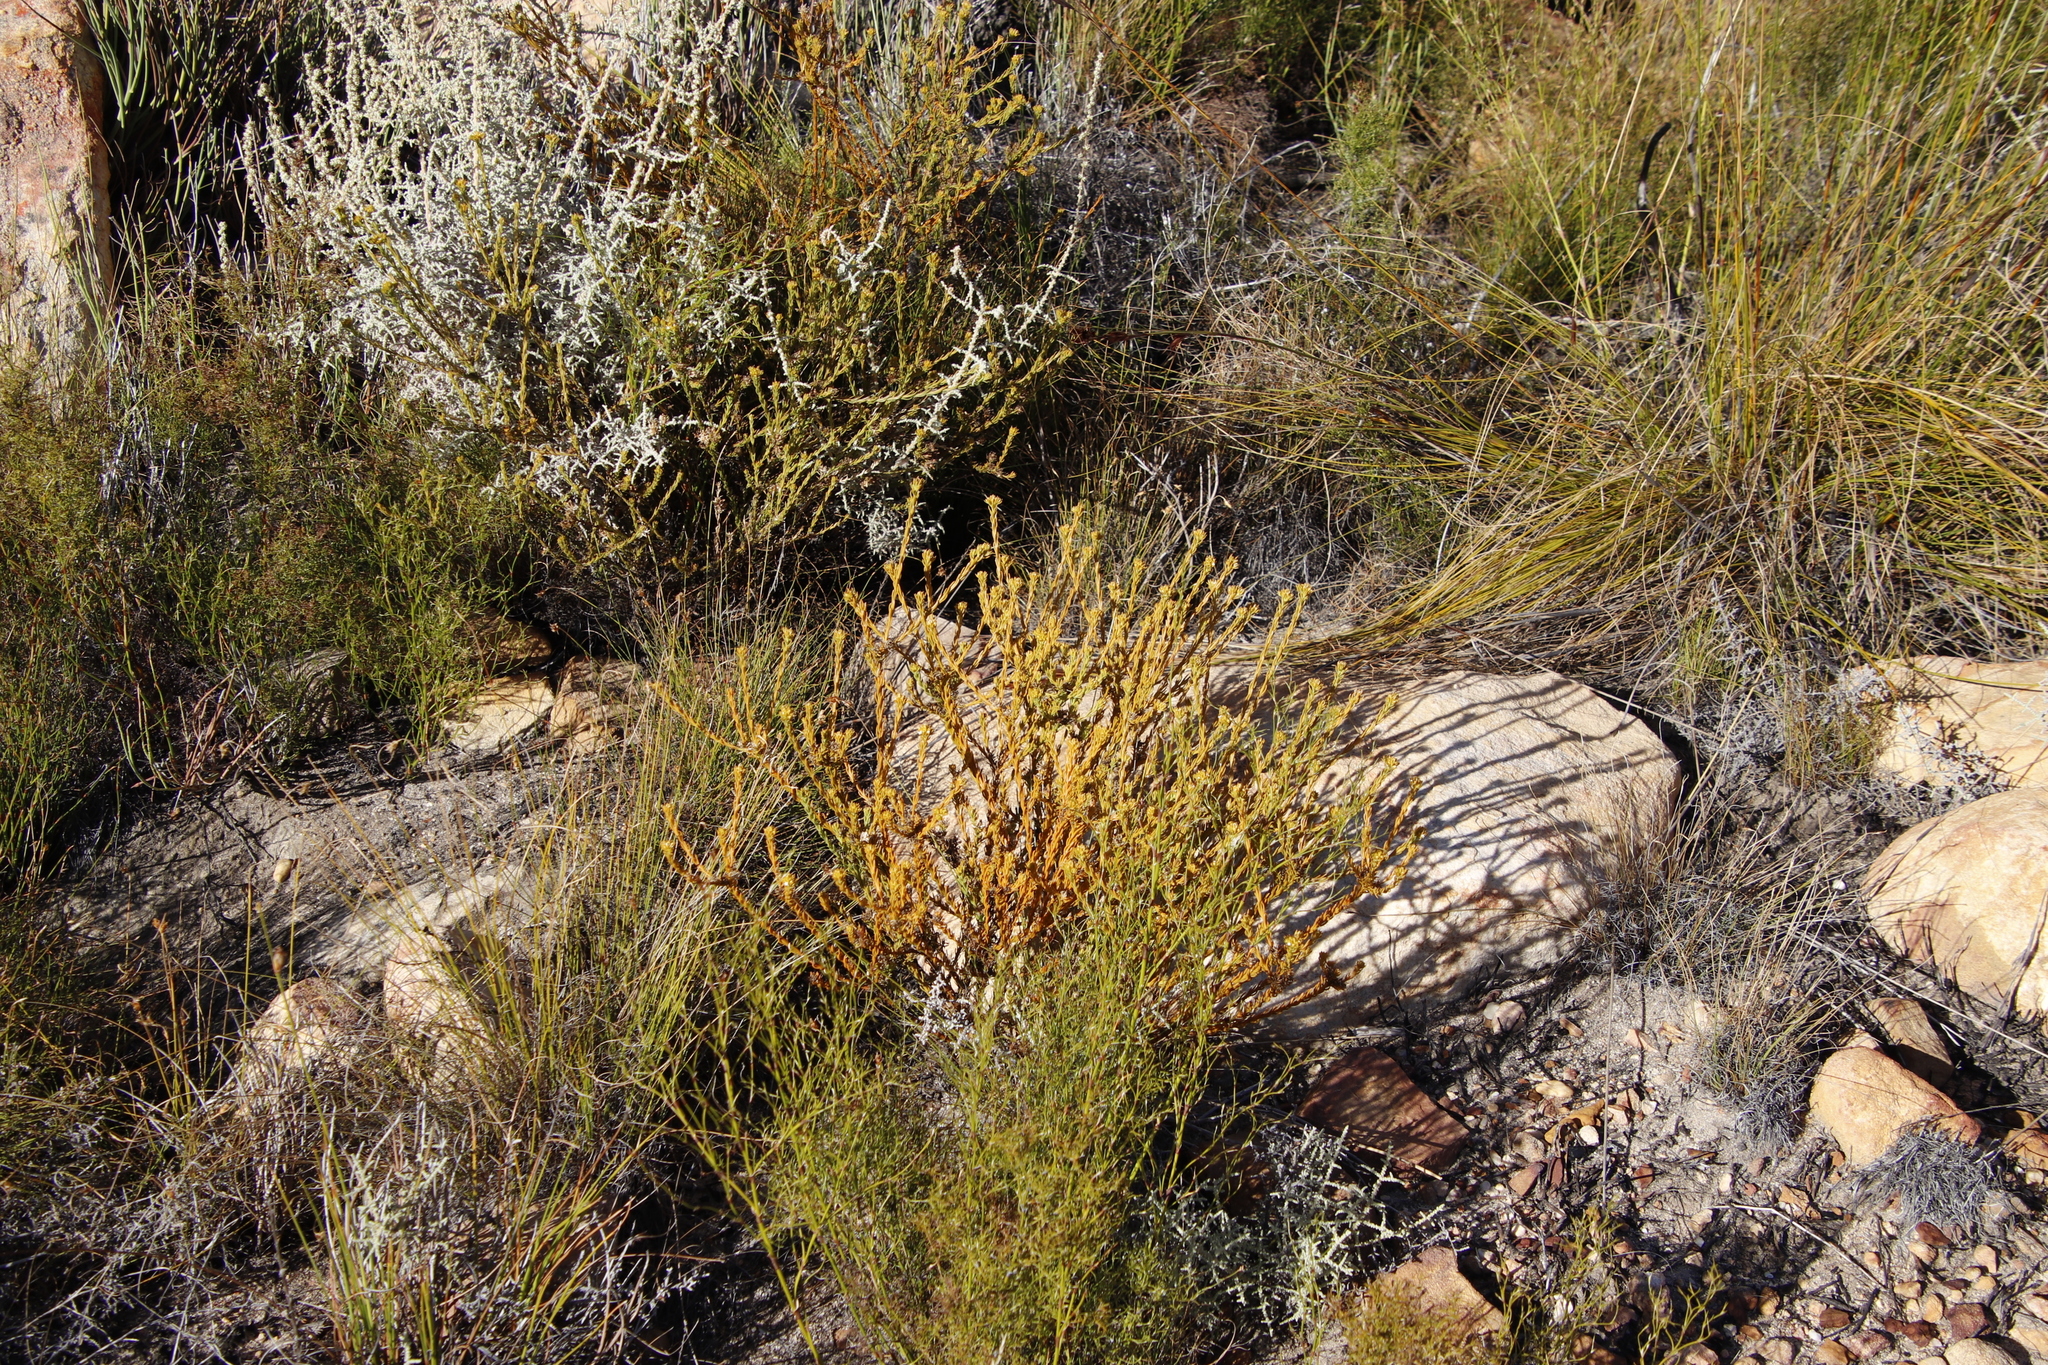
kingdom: Plantae
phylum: Tracheophyta
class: Magnoliopsida
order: Santalales
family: Thesiaceae
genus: Thesium
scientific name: Thesium carinatum
